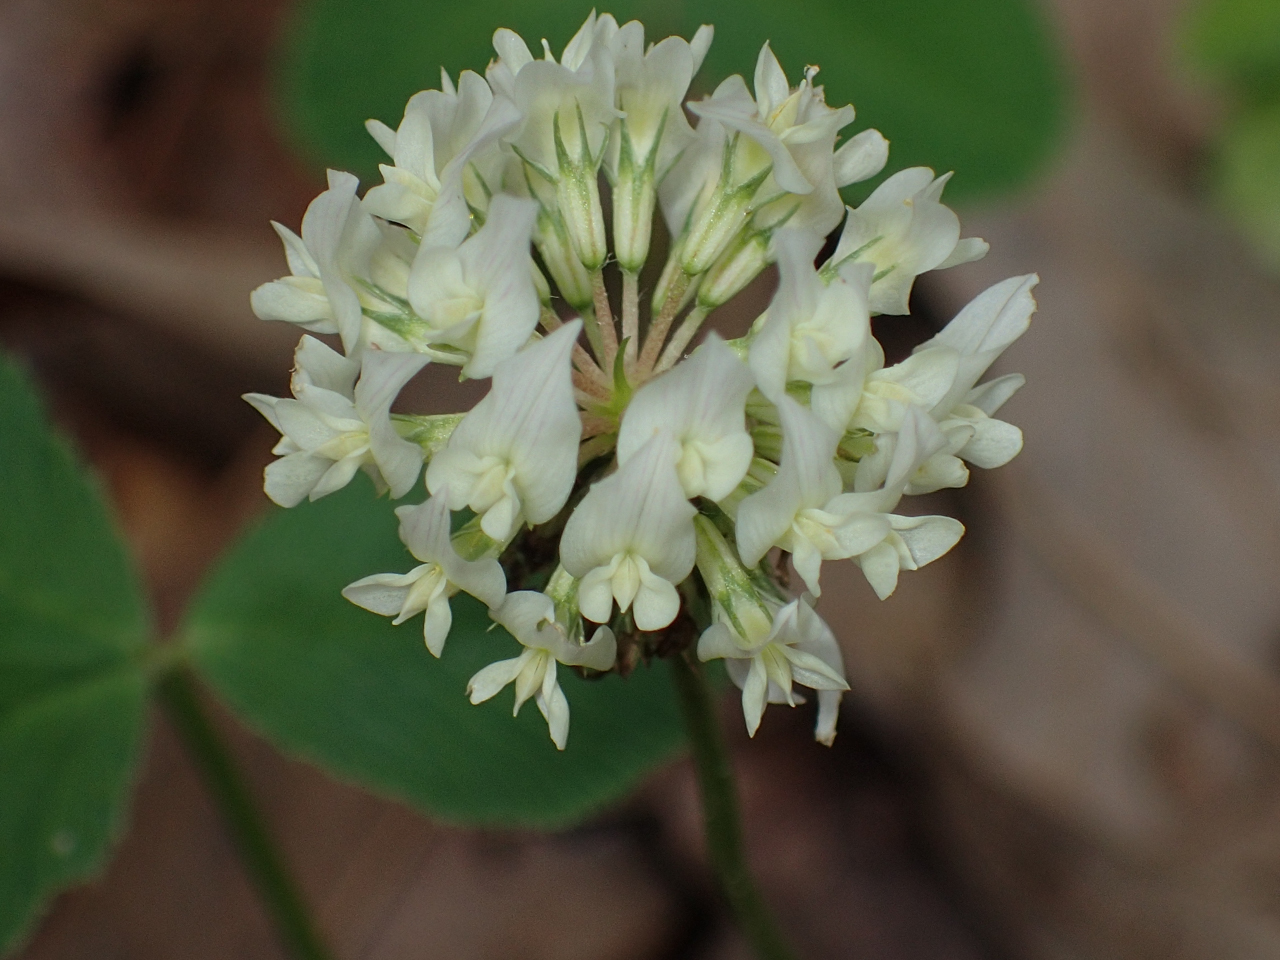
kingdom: Plantae
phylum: Tracheophyta
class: Magnoliopsida
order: Fabales
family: Fabaceae
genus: Trifolium
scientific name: Trifolium repens
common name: White clover
